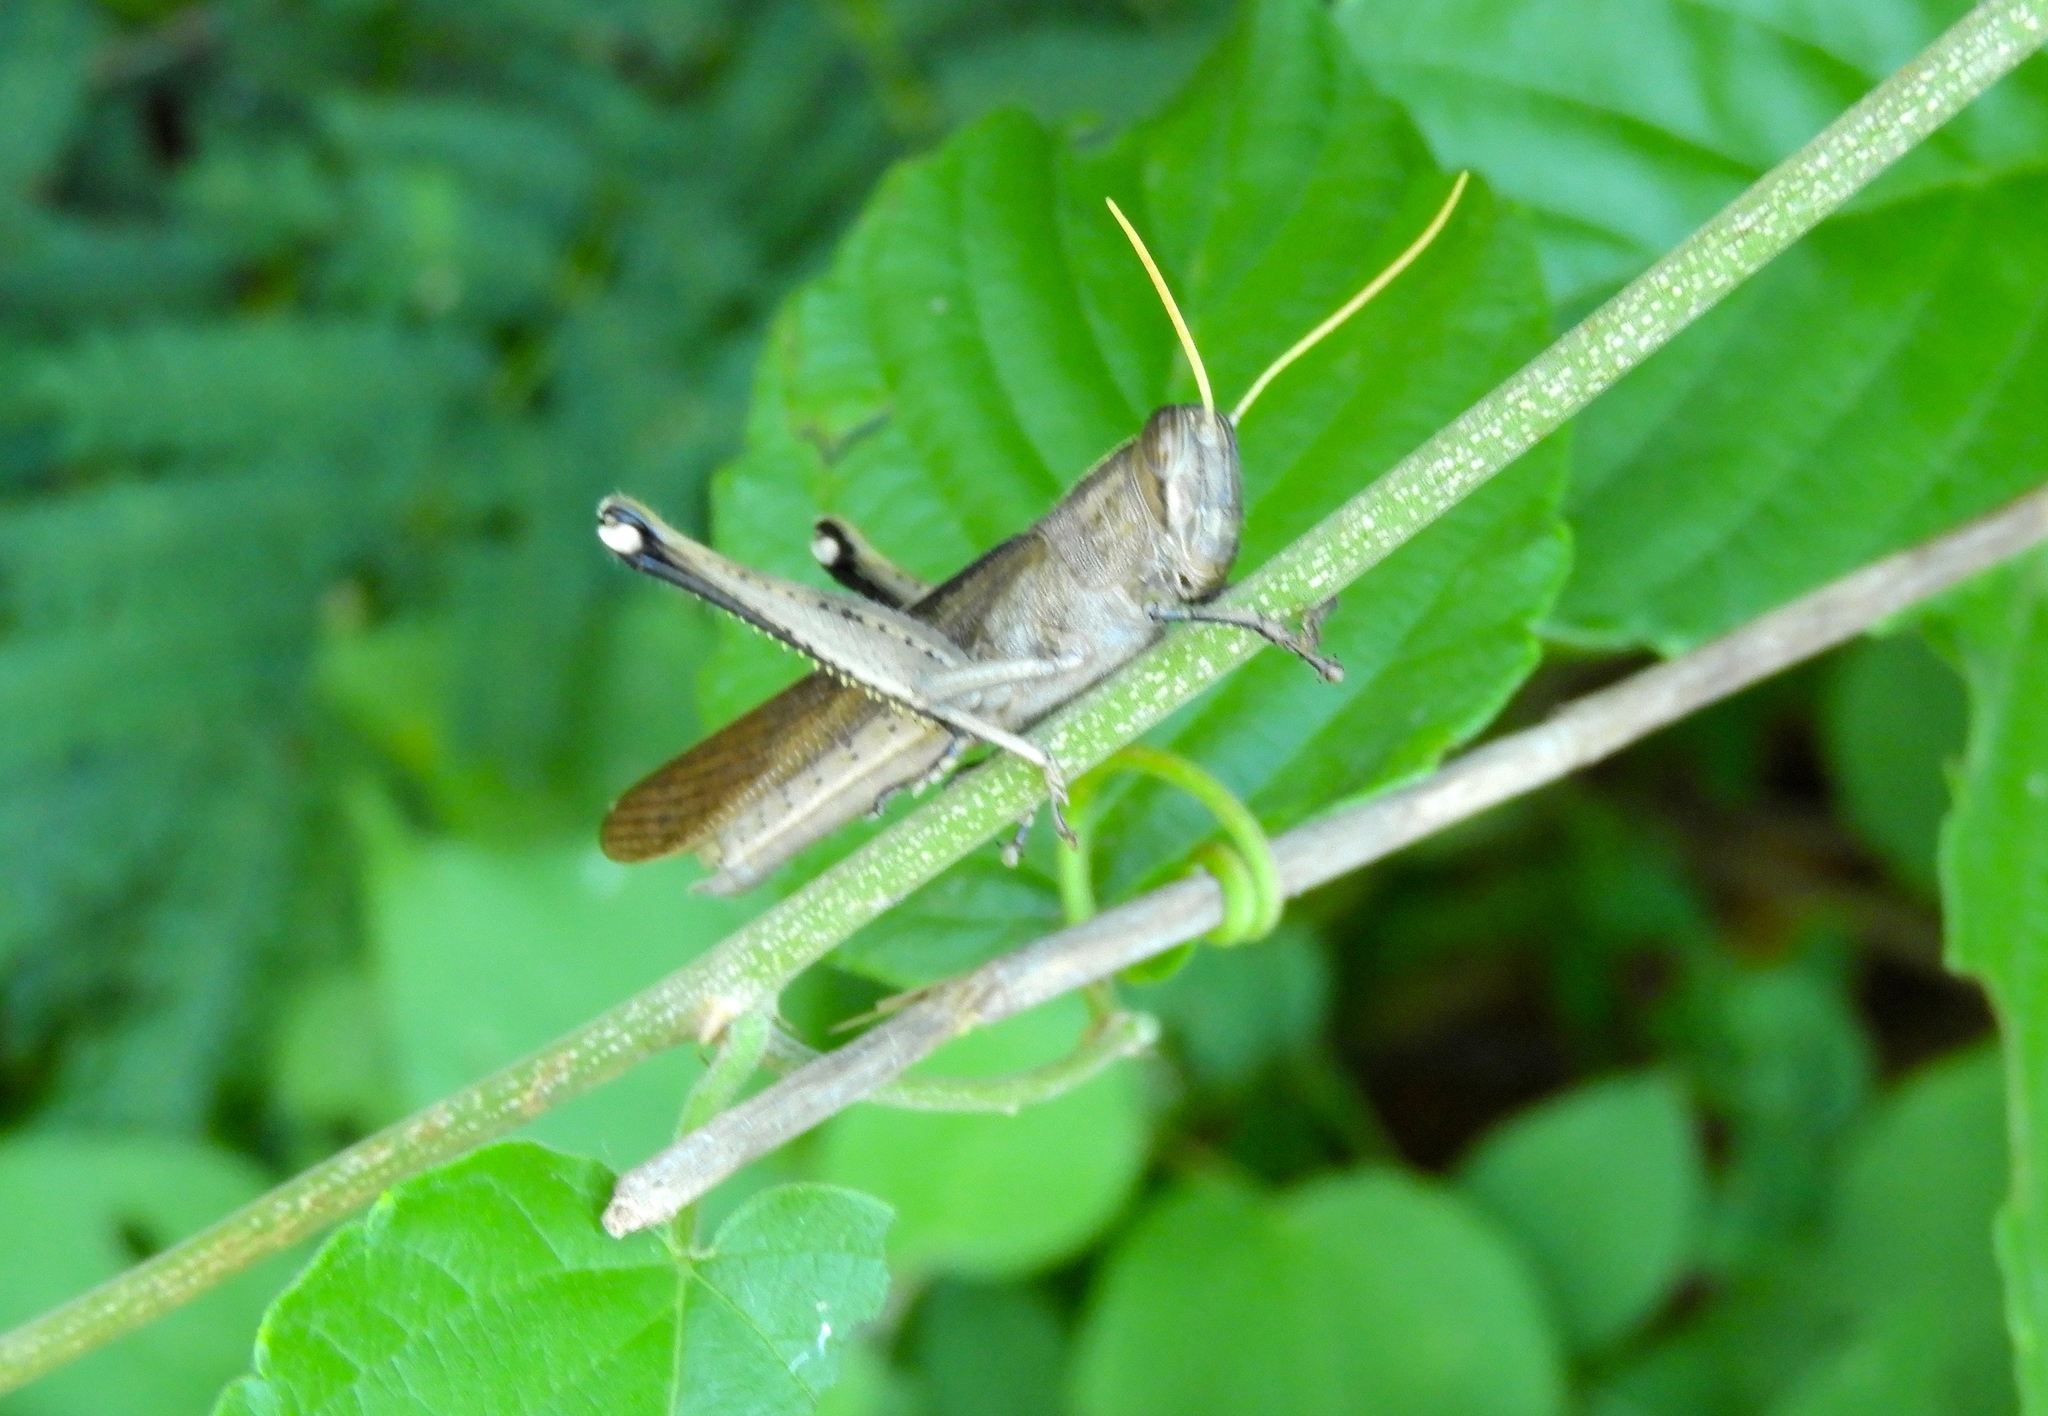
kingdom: Animalia
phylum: Arthropoda
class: Insecta
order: Orthoptera
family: Acrididae
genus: Schistocerca
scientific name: Schistocerca
